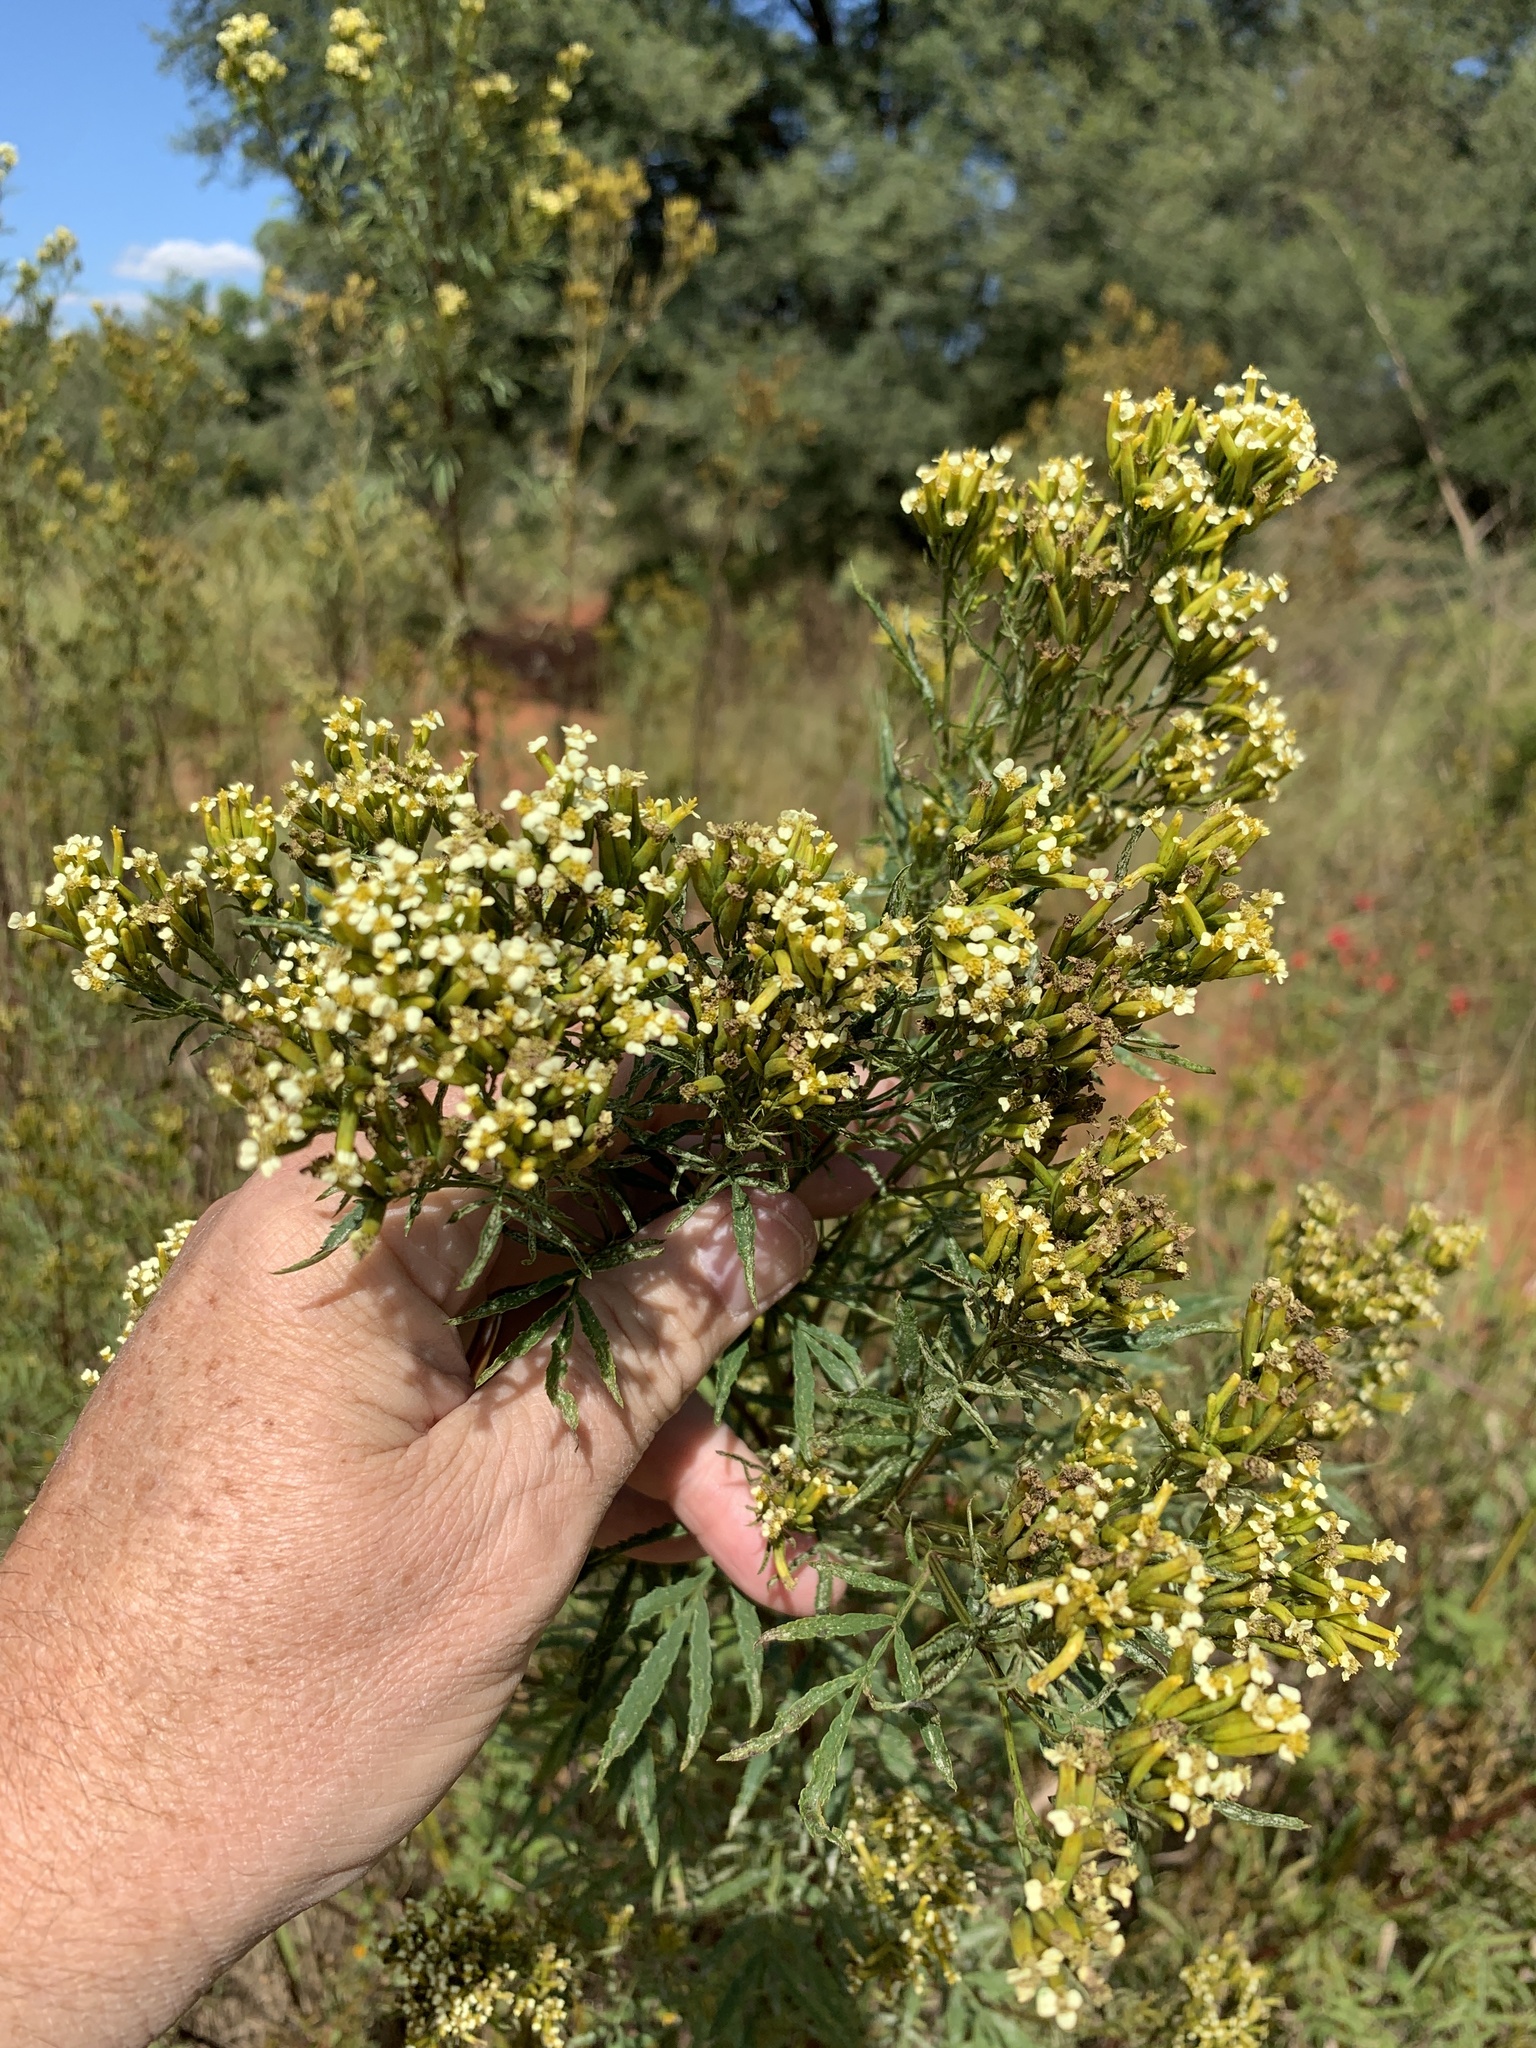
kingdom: Plantae
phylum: Tracheophyta
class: Magnoliopsida
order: Asterales
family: Asteraceae
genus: Tagetes
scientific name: Tagetes minuta
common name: Muster john henry
